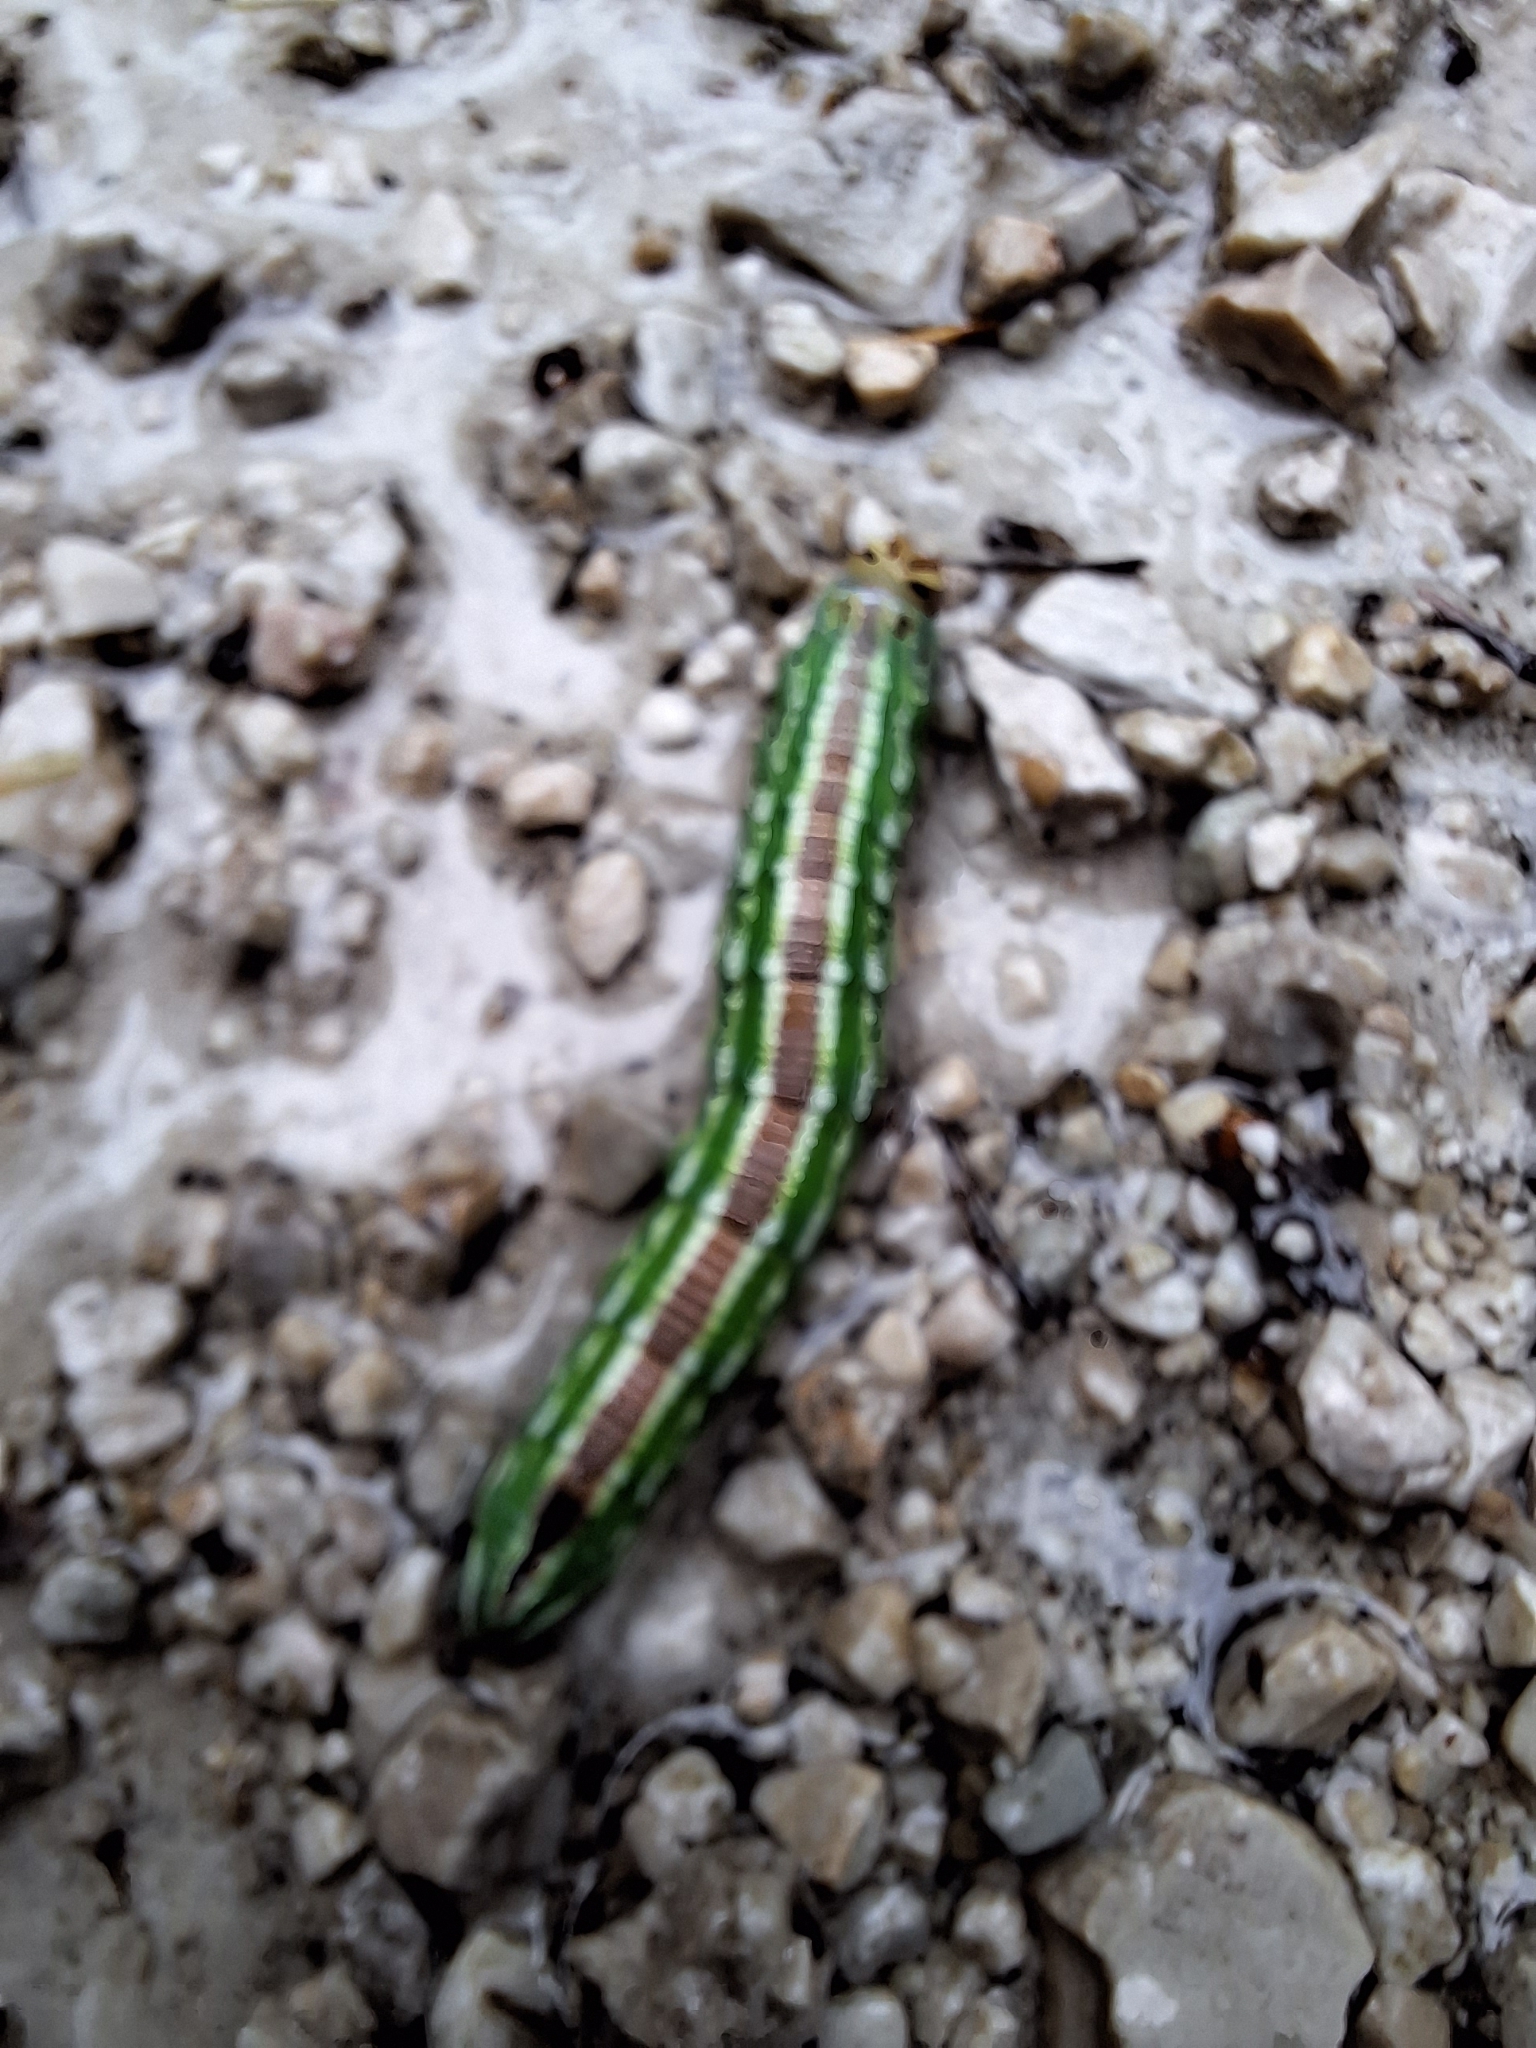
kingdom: Animalia
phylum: Arthropoda
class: Insecta
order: Lepidoptera
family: Sphingidae
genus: Sphinx
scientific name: Sphinx pinastri
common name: Pine hawk-moth
